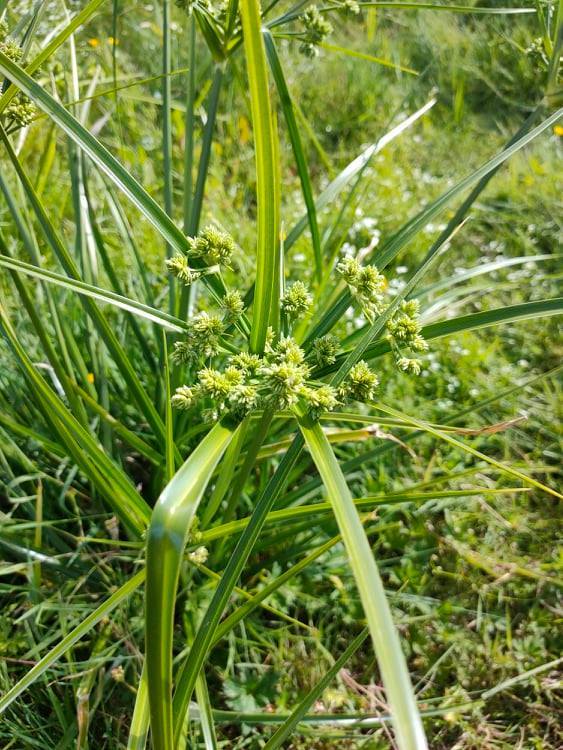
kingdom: Plantae
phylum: Tracheophyta
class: Liliopsida
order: Poales
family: Cyperaceae
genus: Cyperus
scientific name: Cyperus eragrostis
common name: Tall flatsedge
